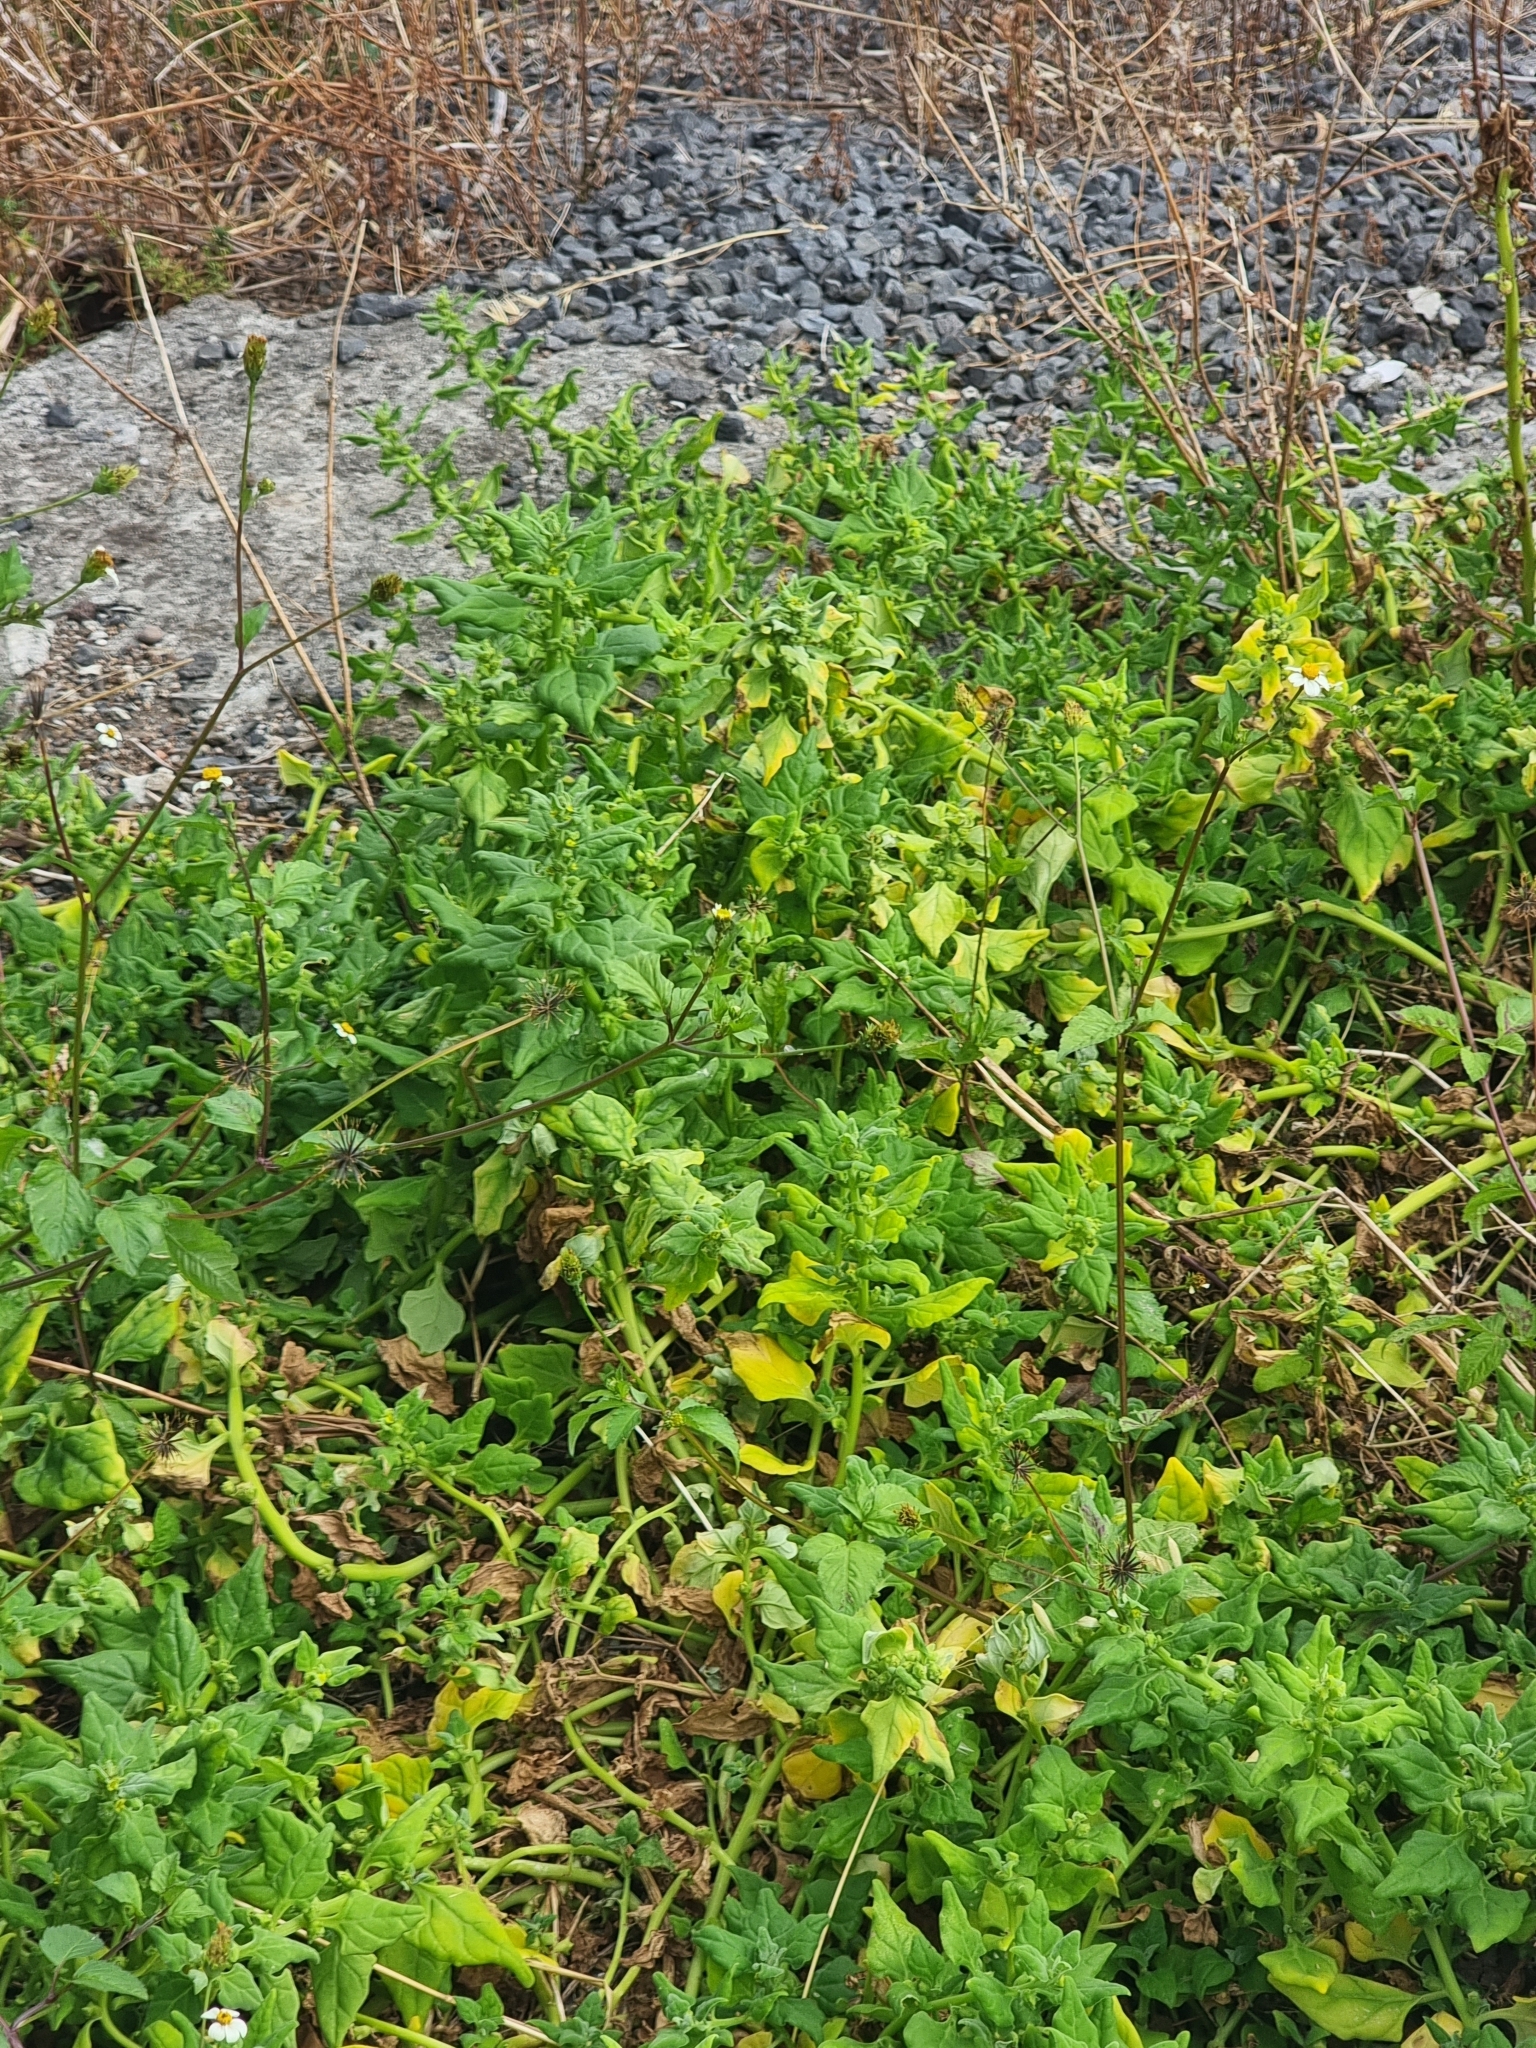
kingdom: Plantae
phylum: Tracheophyta
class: Magnoliopsida
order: Caryophyllales
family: Aizoaceae
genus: Tetragonia
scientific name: Tetragonia tetragonoides
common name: New zealand-spinach
